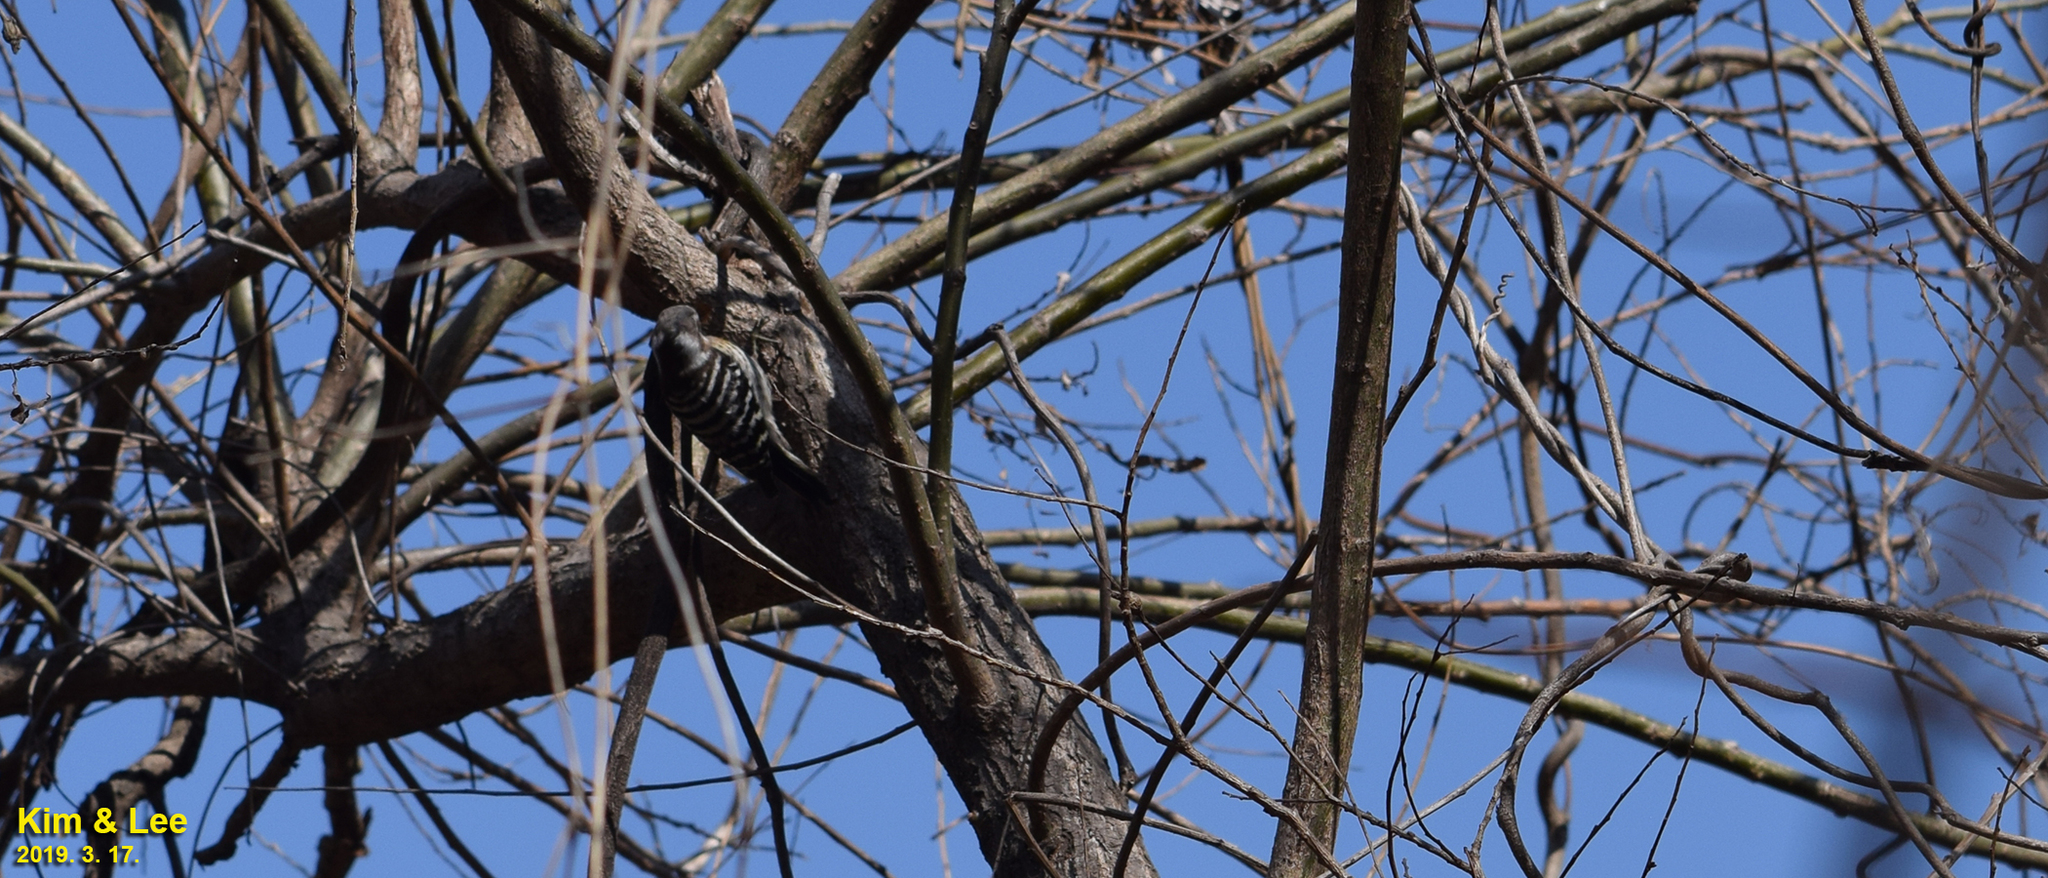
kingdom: Animalia
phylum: Chordata
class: Aves
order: Piciformes
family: Picidae
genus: Yungipicus
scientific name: Yungipicus kizuki
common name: Japanese pygmy woodpecker
